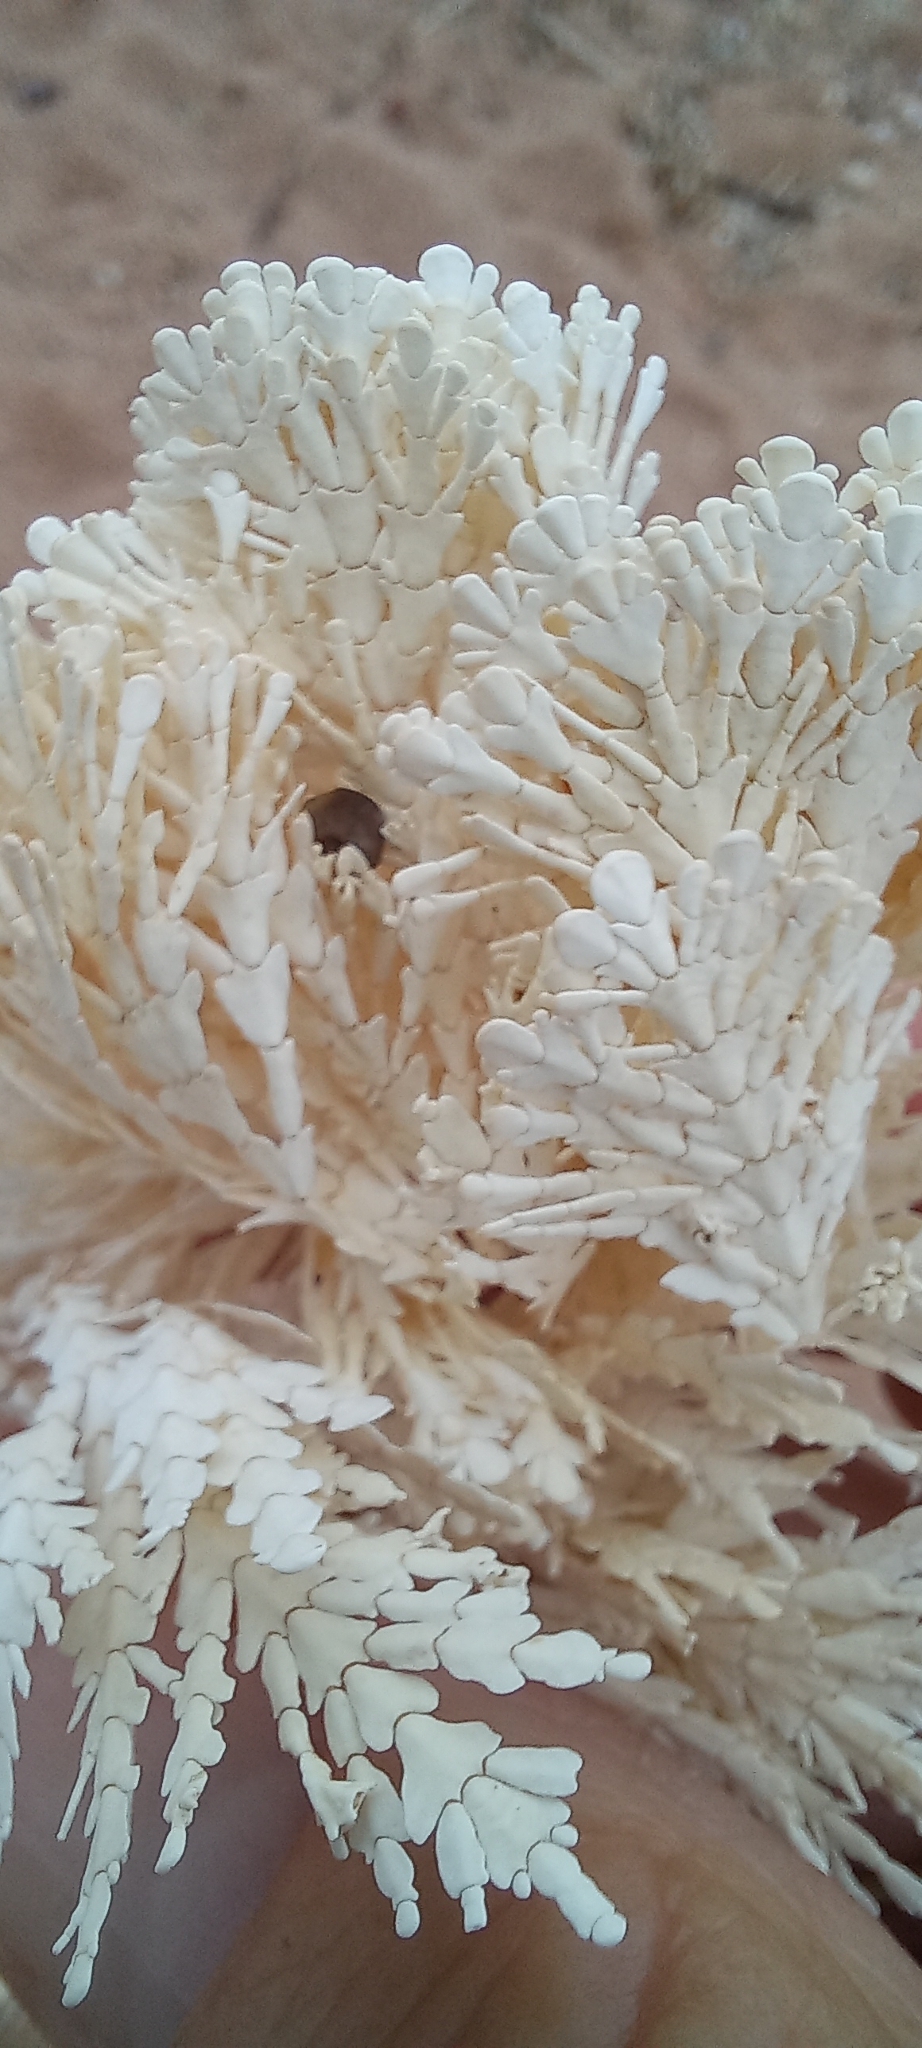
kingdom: Plantae
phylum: Rhodophyta
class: Florideophyceae
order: Corallinales
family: Corallinaceae
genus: Arthrocardia
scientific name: Arthrocardia
